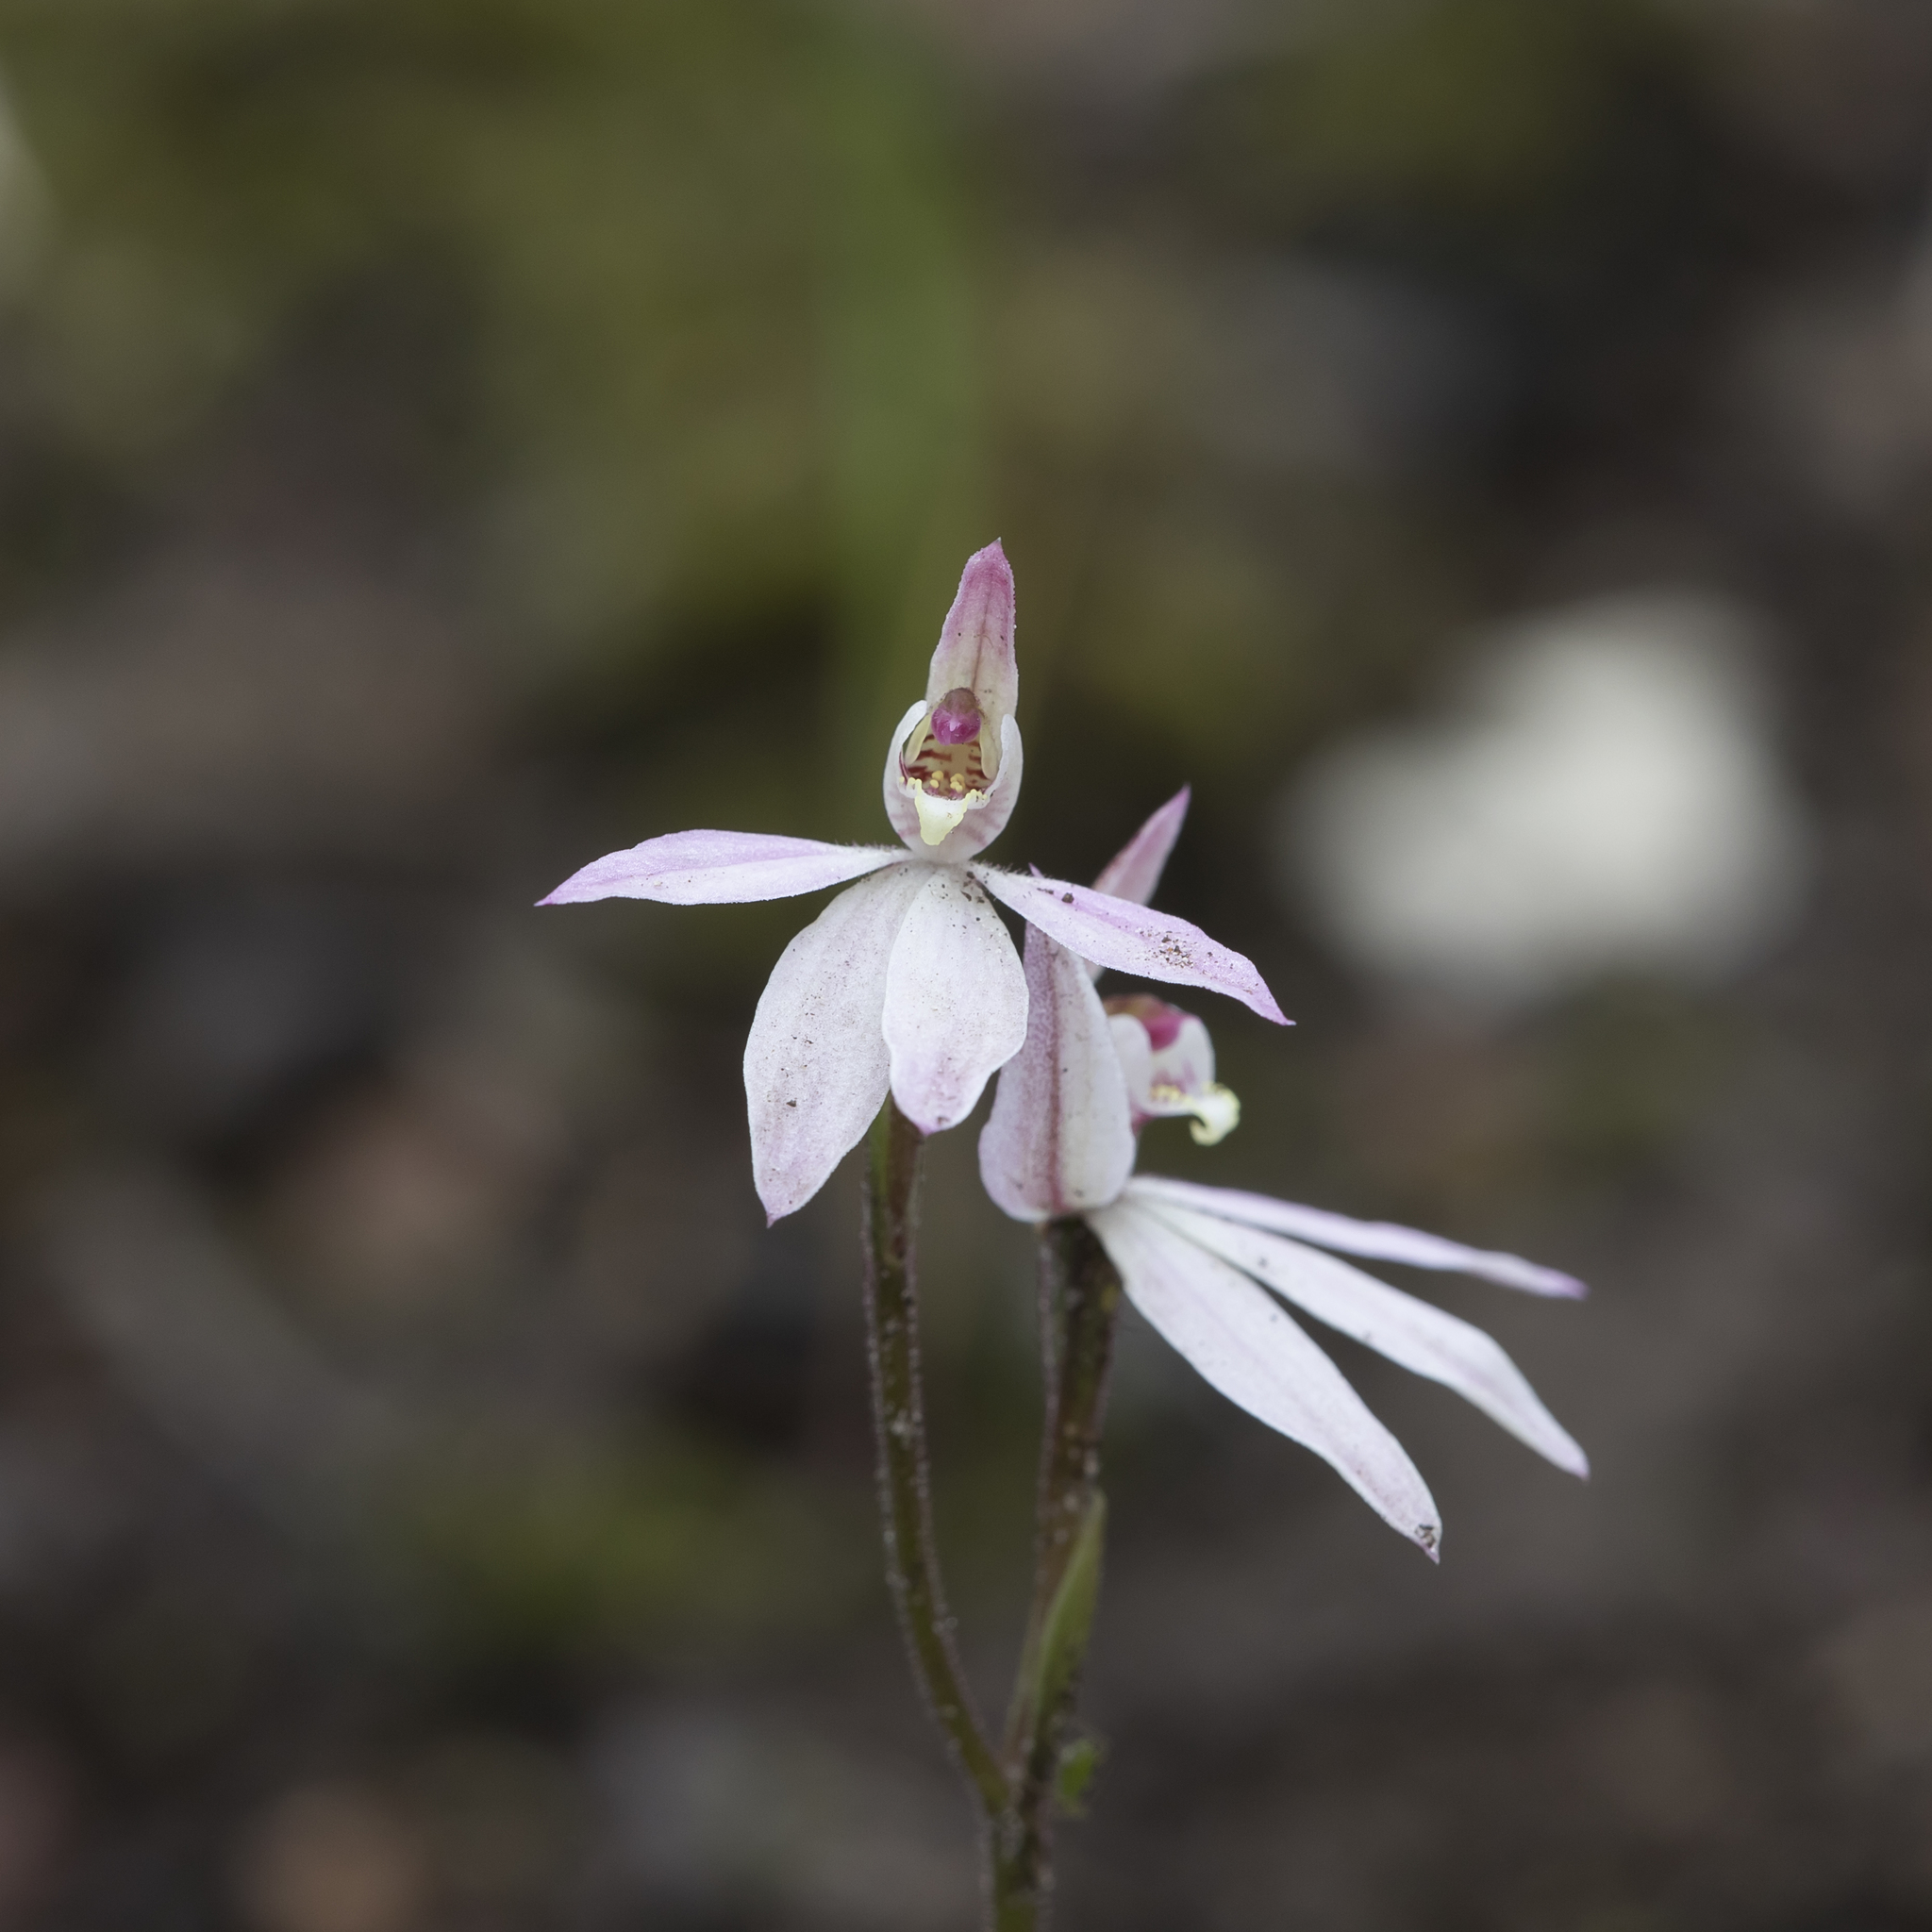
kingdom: Plantae
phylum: Tracheophyta
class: Liliopsida
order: Asparagales
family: Orchidaceae
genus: Caladenia
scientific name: Caladenia carnea
